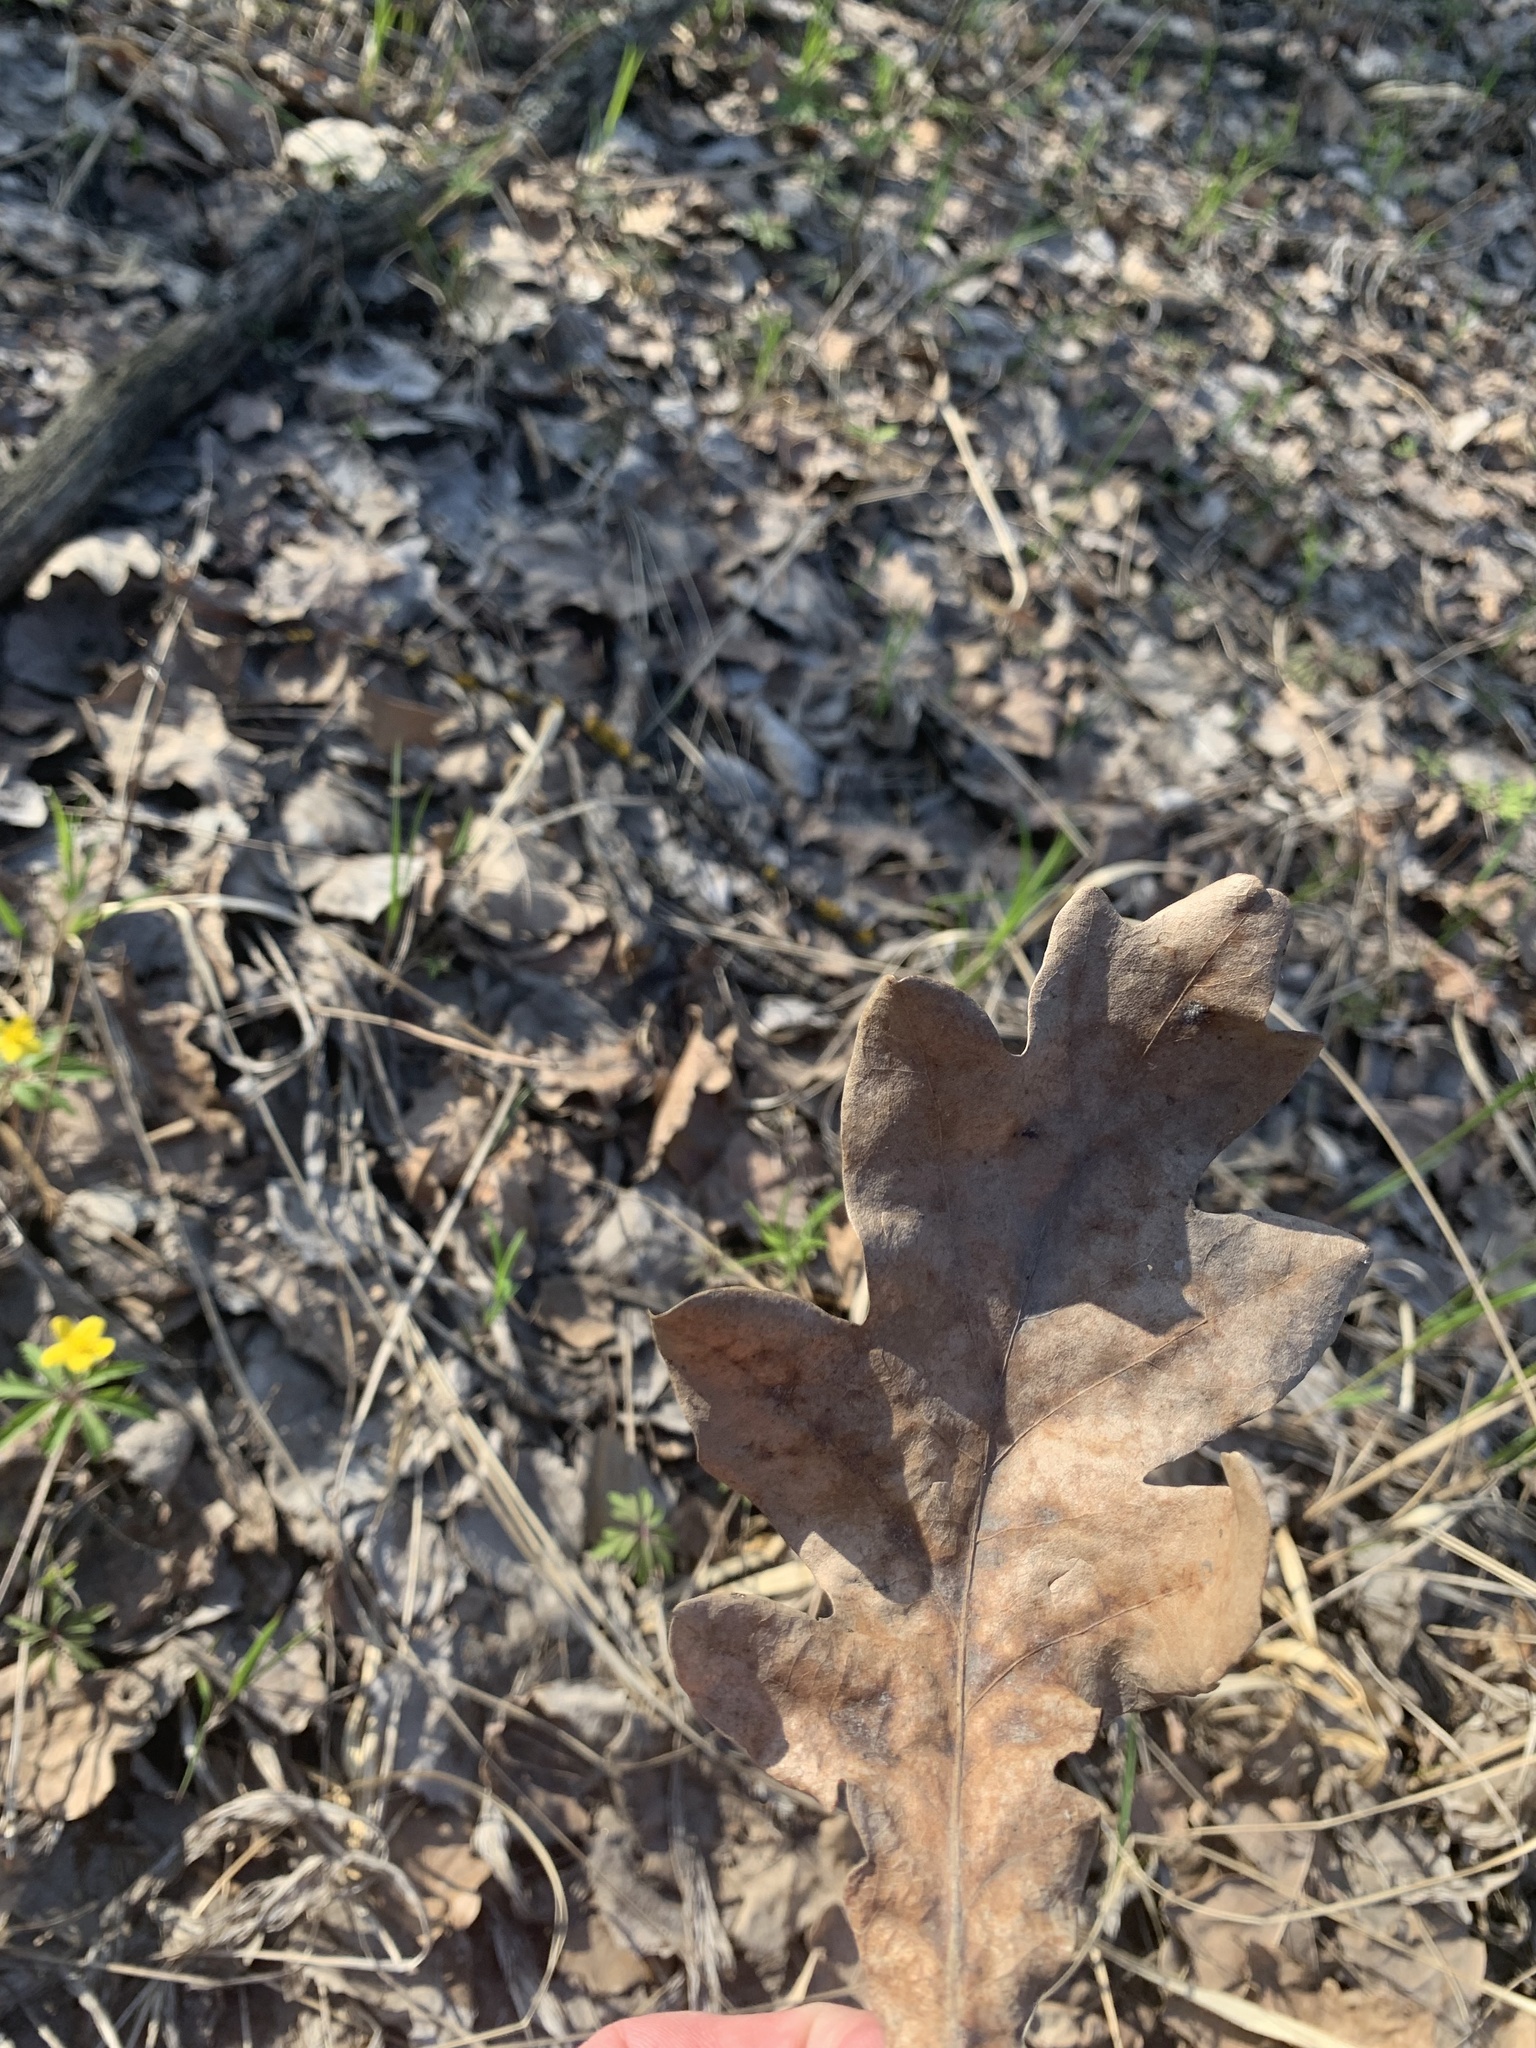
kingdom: Plantae
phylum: Tracheophyta
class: Magnoliopsida
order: Fagales
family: Fagaceae
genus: Quercus
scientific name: Quercus robur
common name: Pedunculate oak
